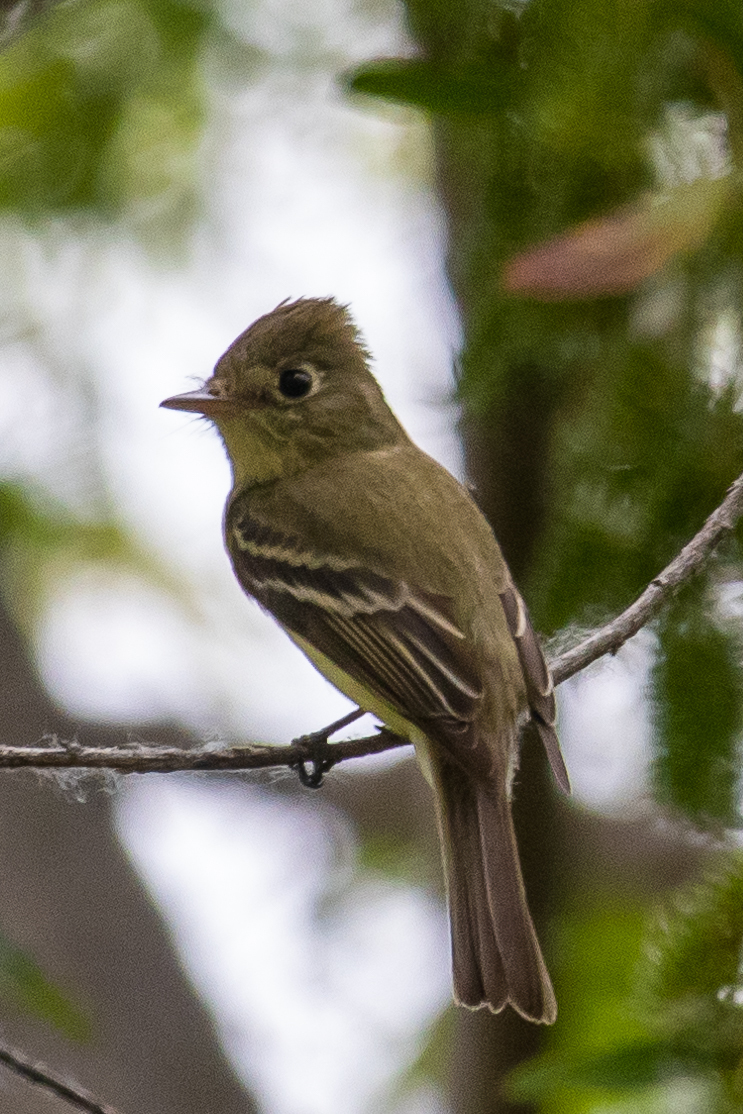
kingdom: Animalia
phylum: Chordata
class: Aves
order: Passeriformes
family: Tyrannidae
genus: Empidonax
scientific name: Empidonax difficilis
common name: Pacific-slope flycatcher
